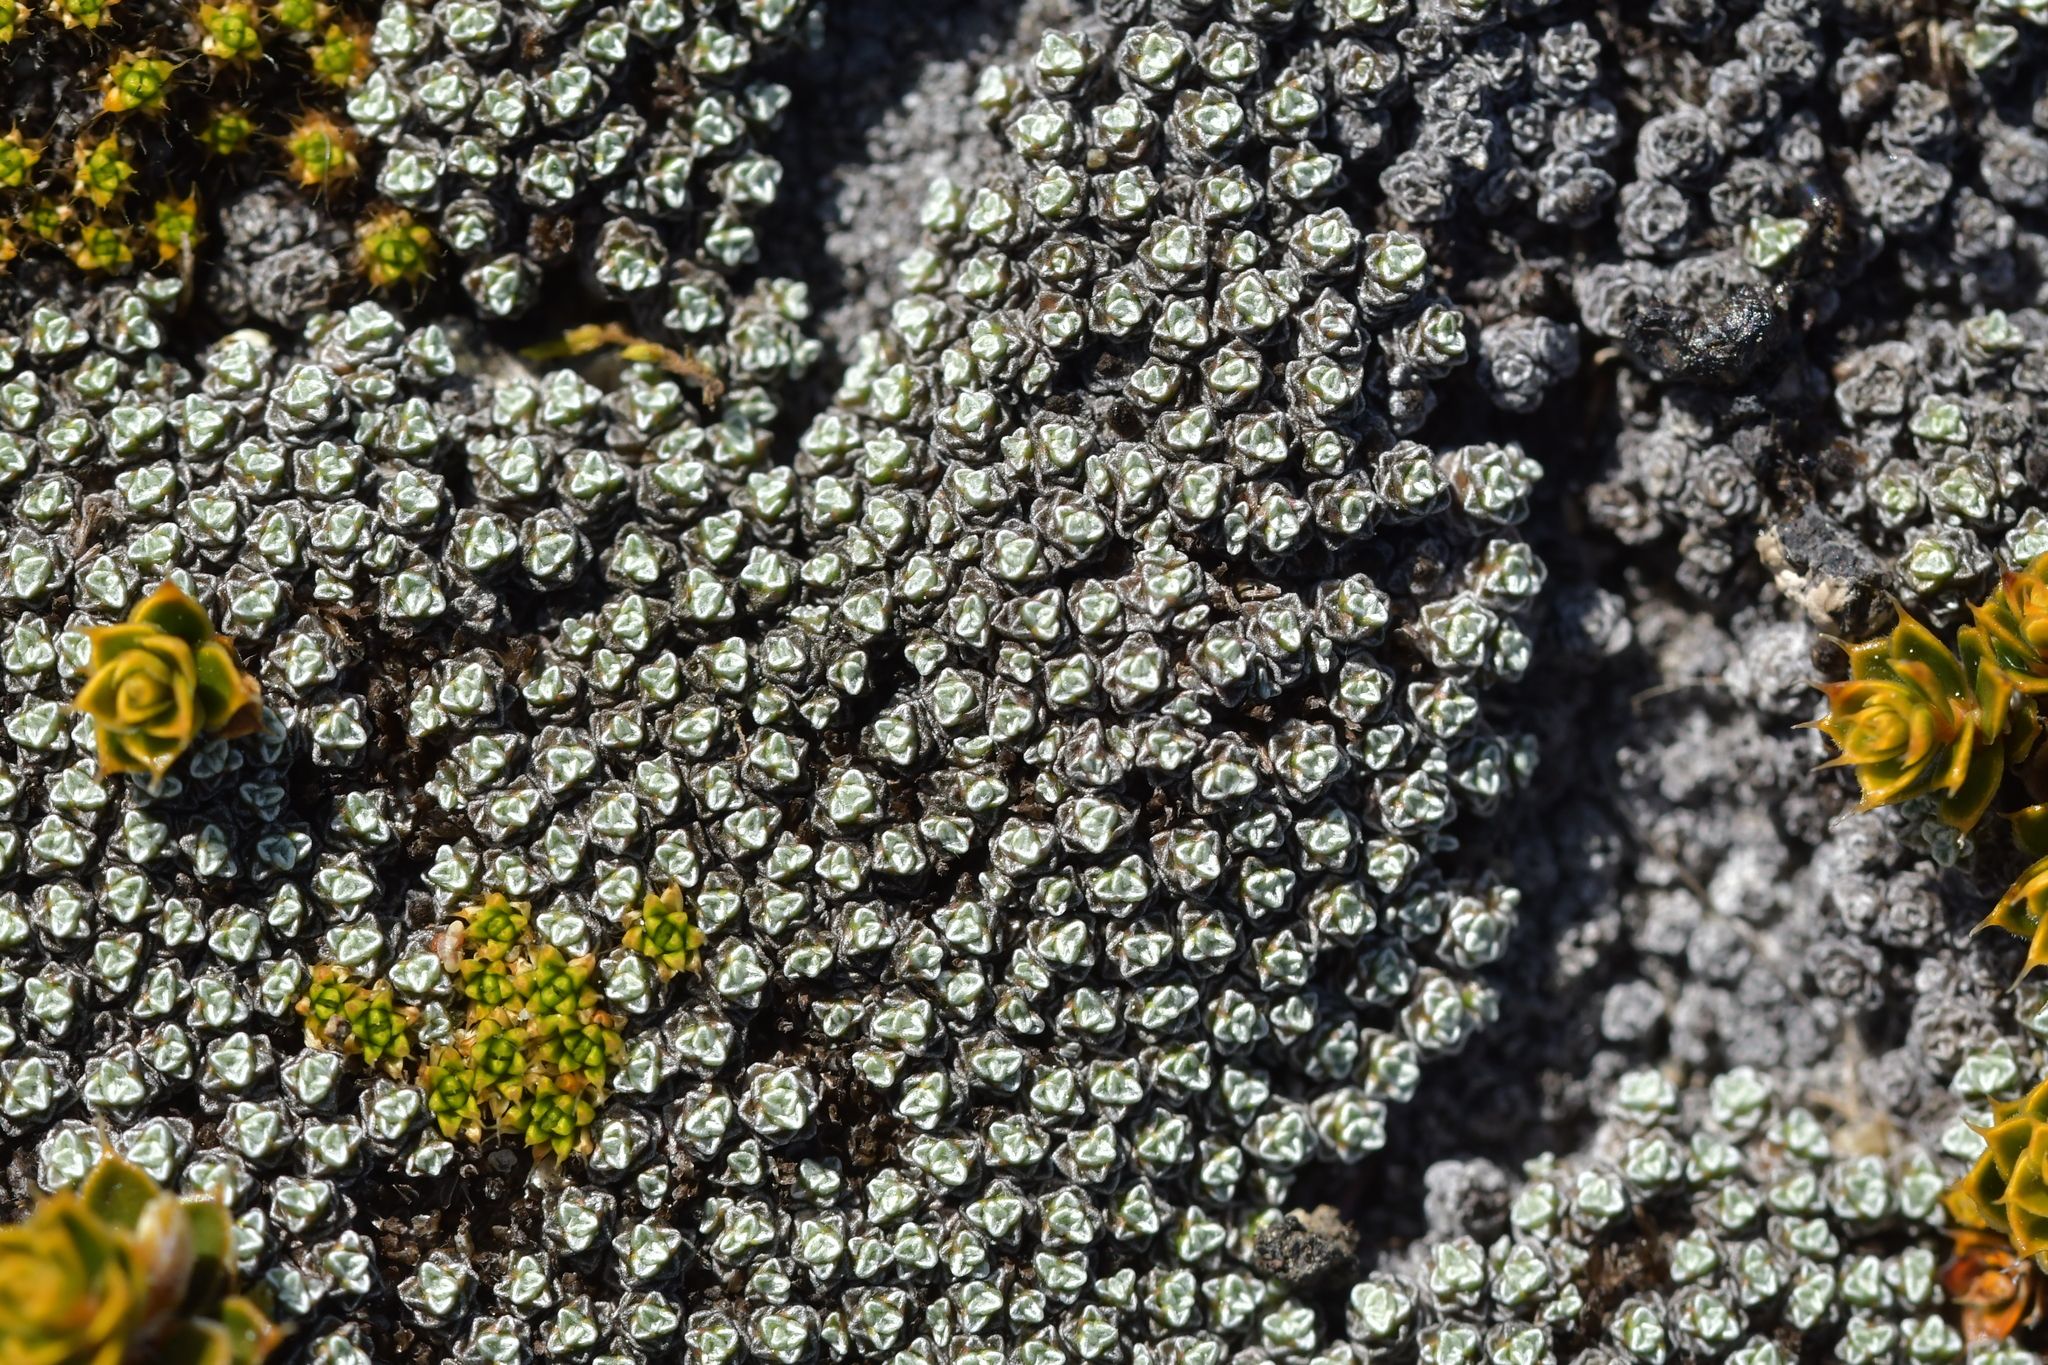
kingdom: Plantae
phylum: Tracheophyta
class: Magnoliopsida
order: Asterales
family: Asteraceae
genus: Raoulia
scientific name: Raoulia australis
